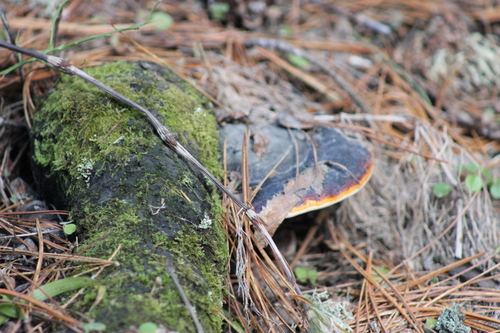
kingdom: Fungi
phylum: Basidiomycota
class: Agaricomycetes
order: Polyporales
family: Fomitopsidaceae
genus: Fomitopsis
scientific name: Fomitopsis pinicola
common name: Red-belted bracket
